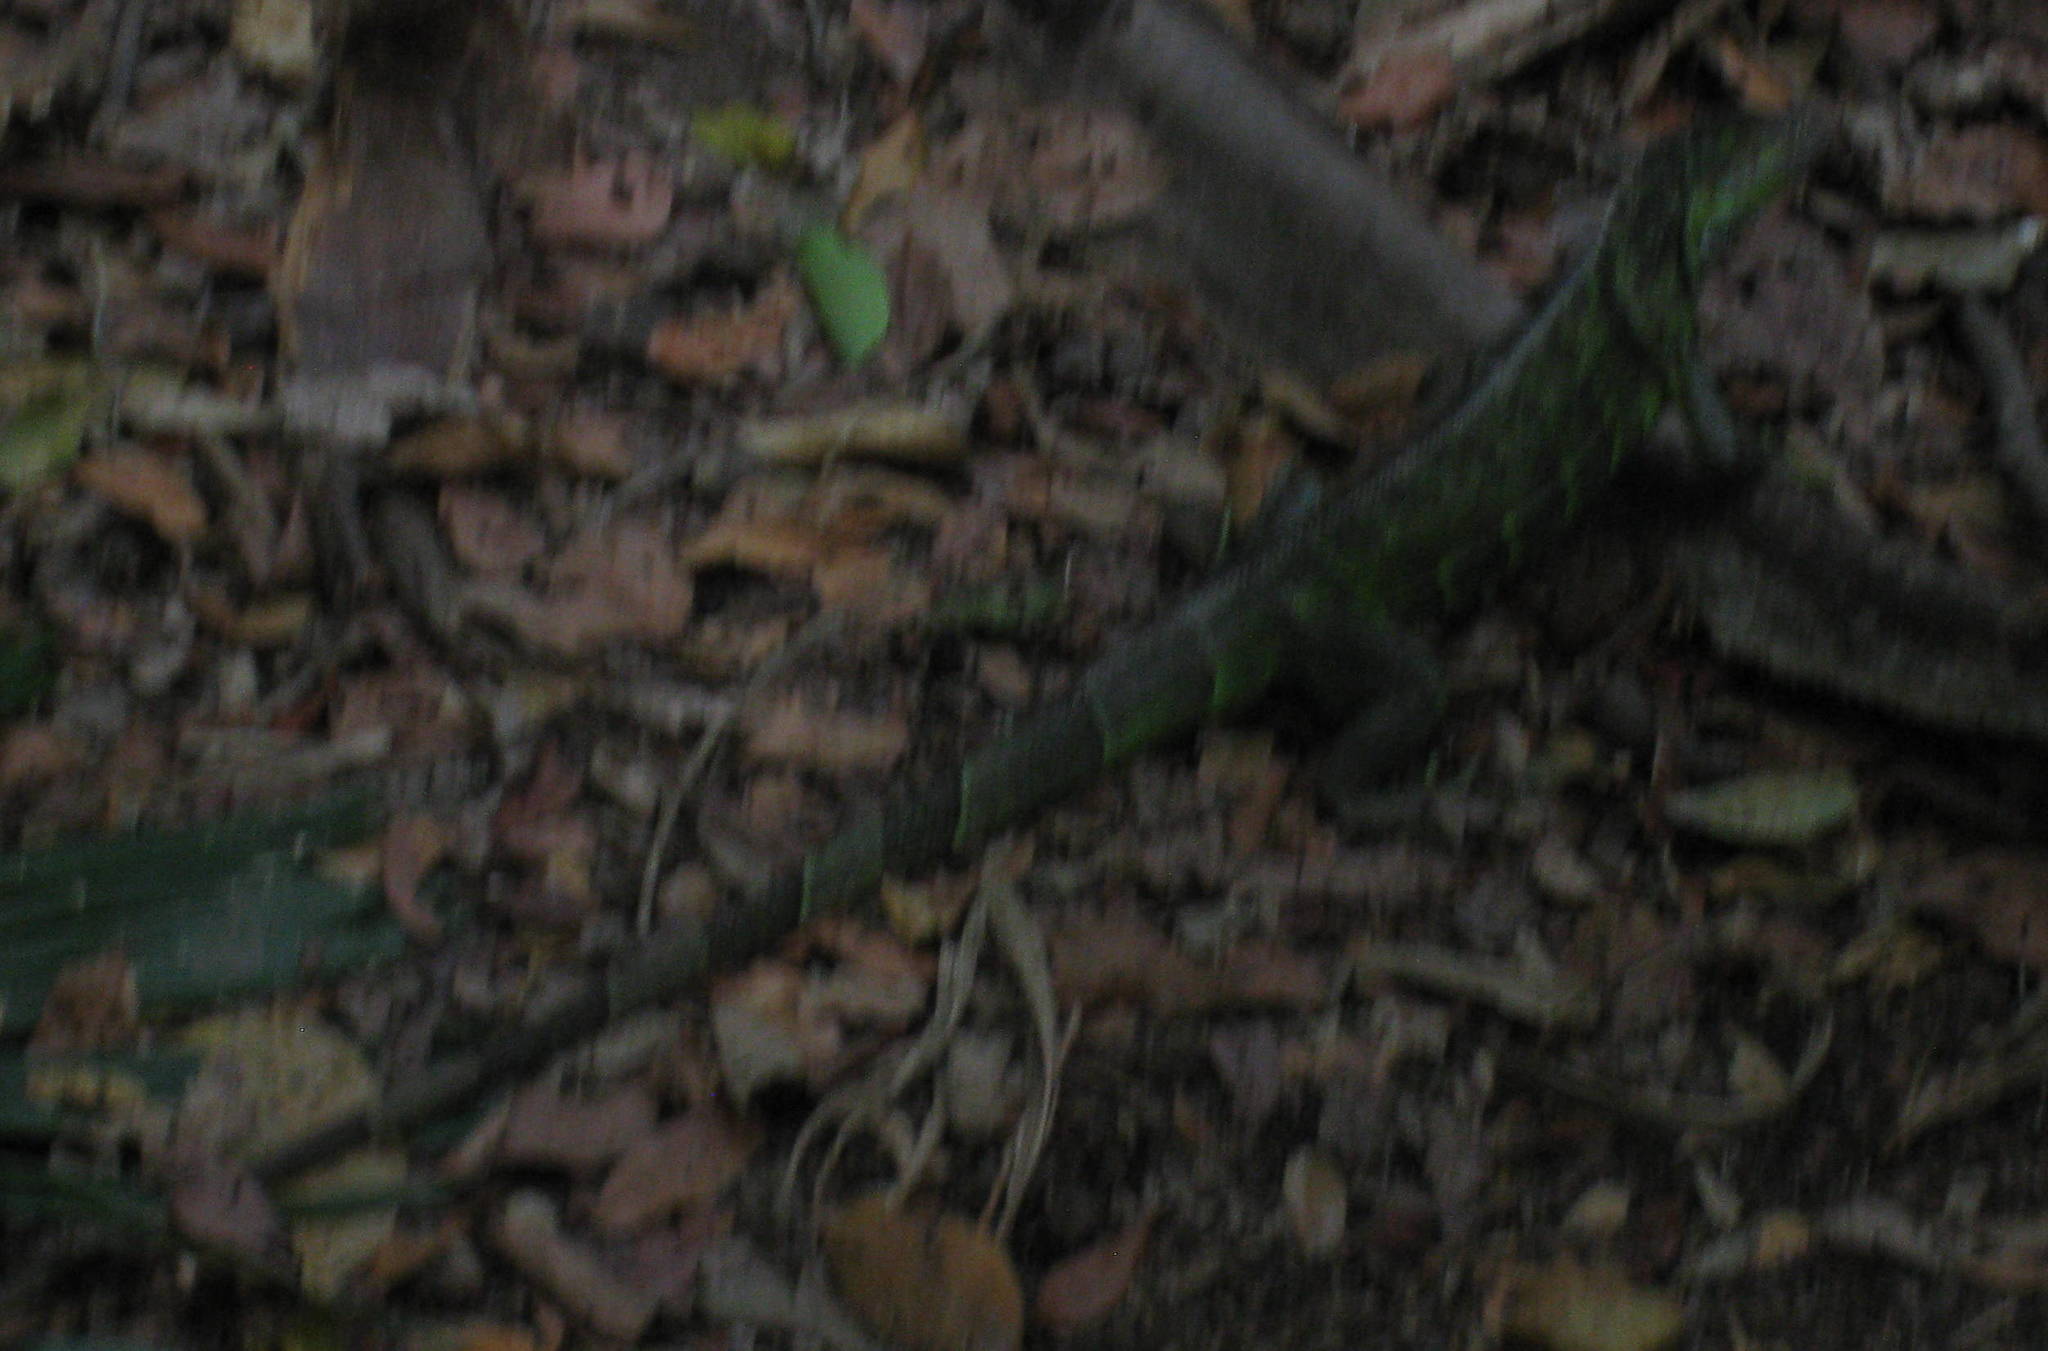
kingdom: Animalia
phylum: Chordata
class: Squamata
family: Iguanidae
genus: Iguana
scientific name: Iguana iguana
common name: Green iguana
